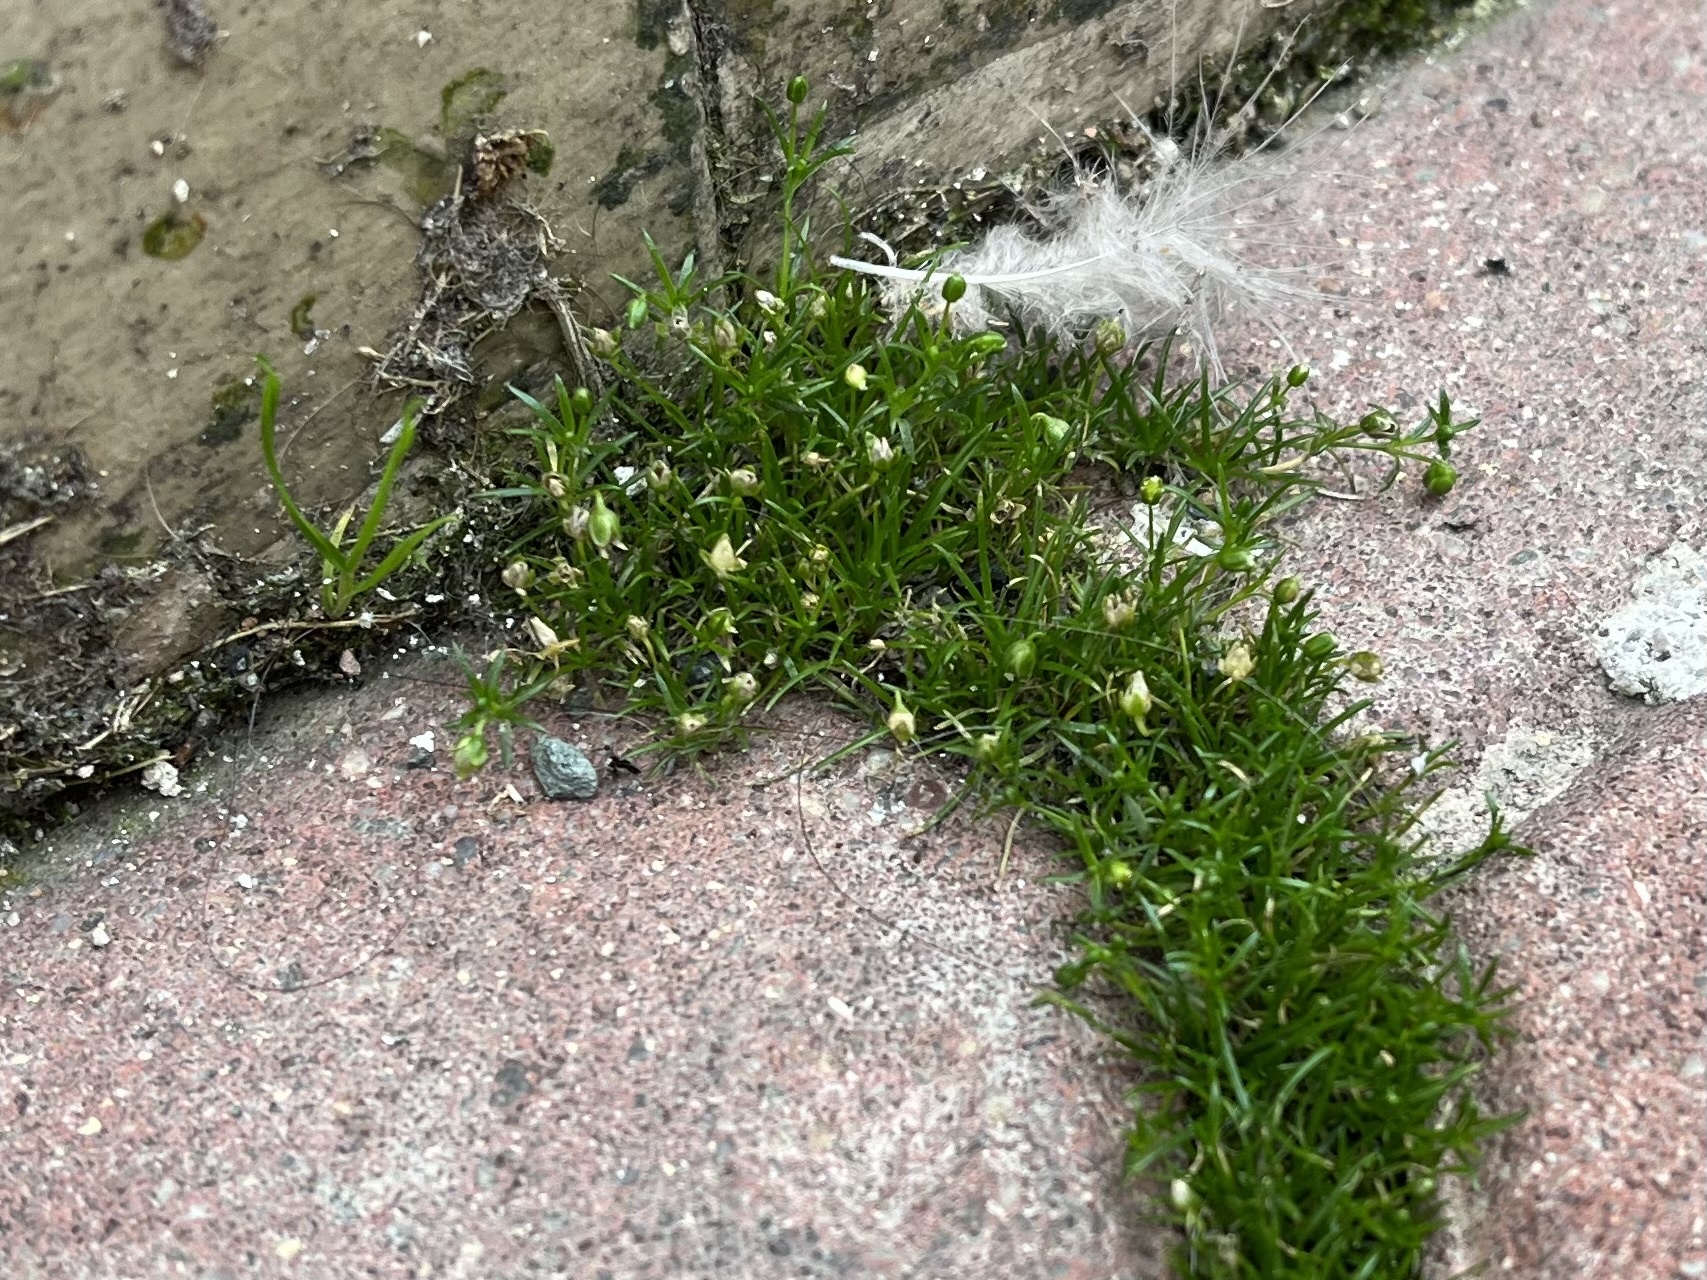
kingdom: Plantae
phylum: Tracheophyta
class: Magnoliopsida
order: Caryophyllales
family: Caryophyllaceae
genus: Sagina
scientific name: Sagina procumbens
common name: Procumbent pearlwort
